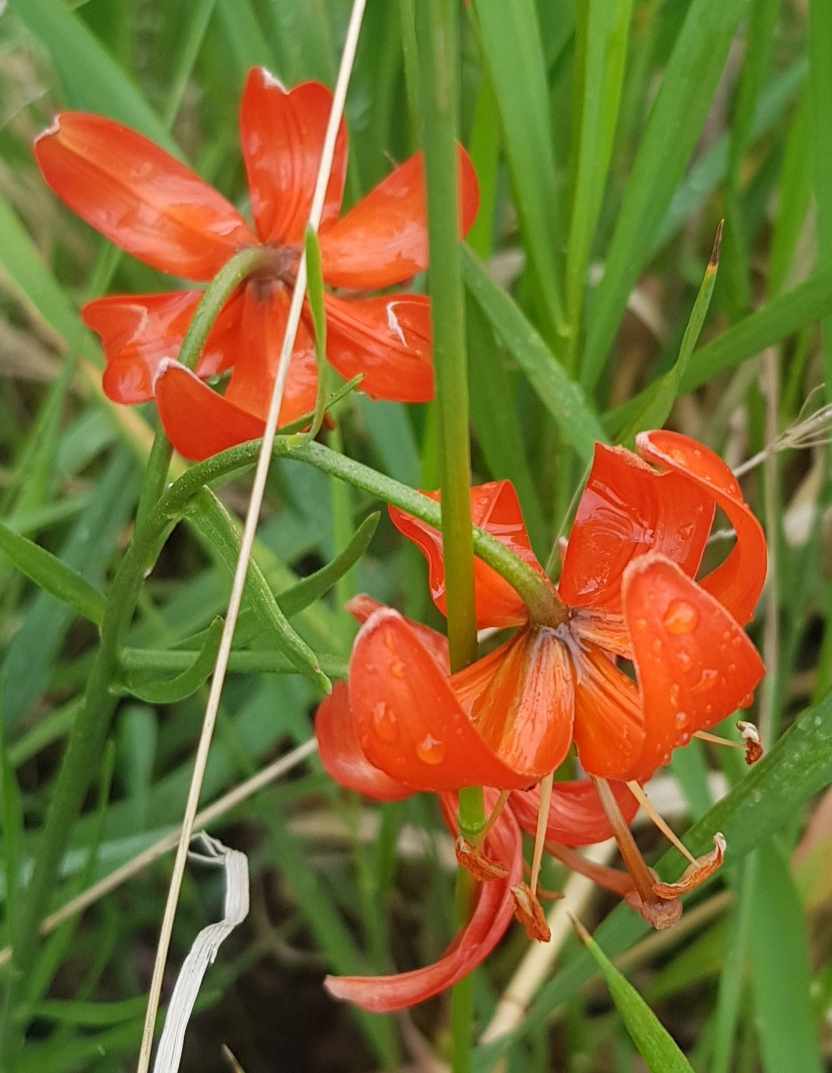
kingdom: Plantae
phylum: Tracheophyta
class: Liliopsida
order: Liliales
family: Liliaceae
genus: Lilium
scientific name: Lilium pumilum
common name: Coral lily
